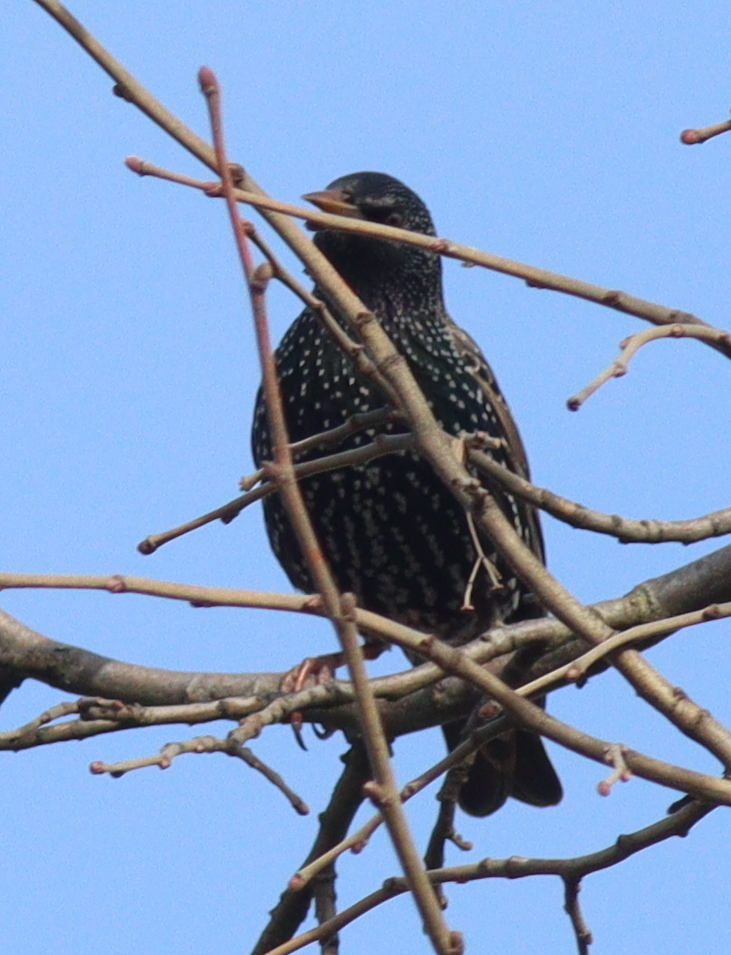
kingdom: Animalia
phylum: Chordata
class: Aves
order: Passeriformes
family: Sturnidae
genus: Sturnus
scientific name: Sturnus vulgaris
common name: Common starling
